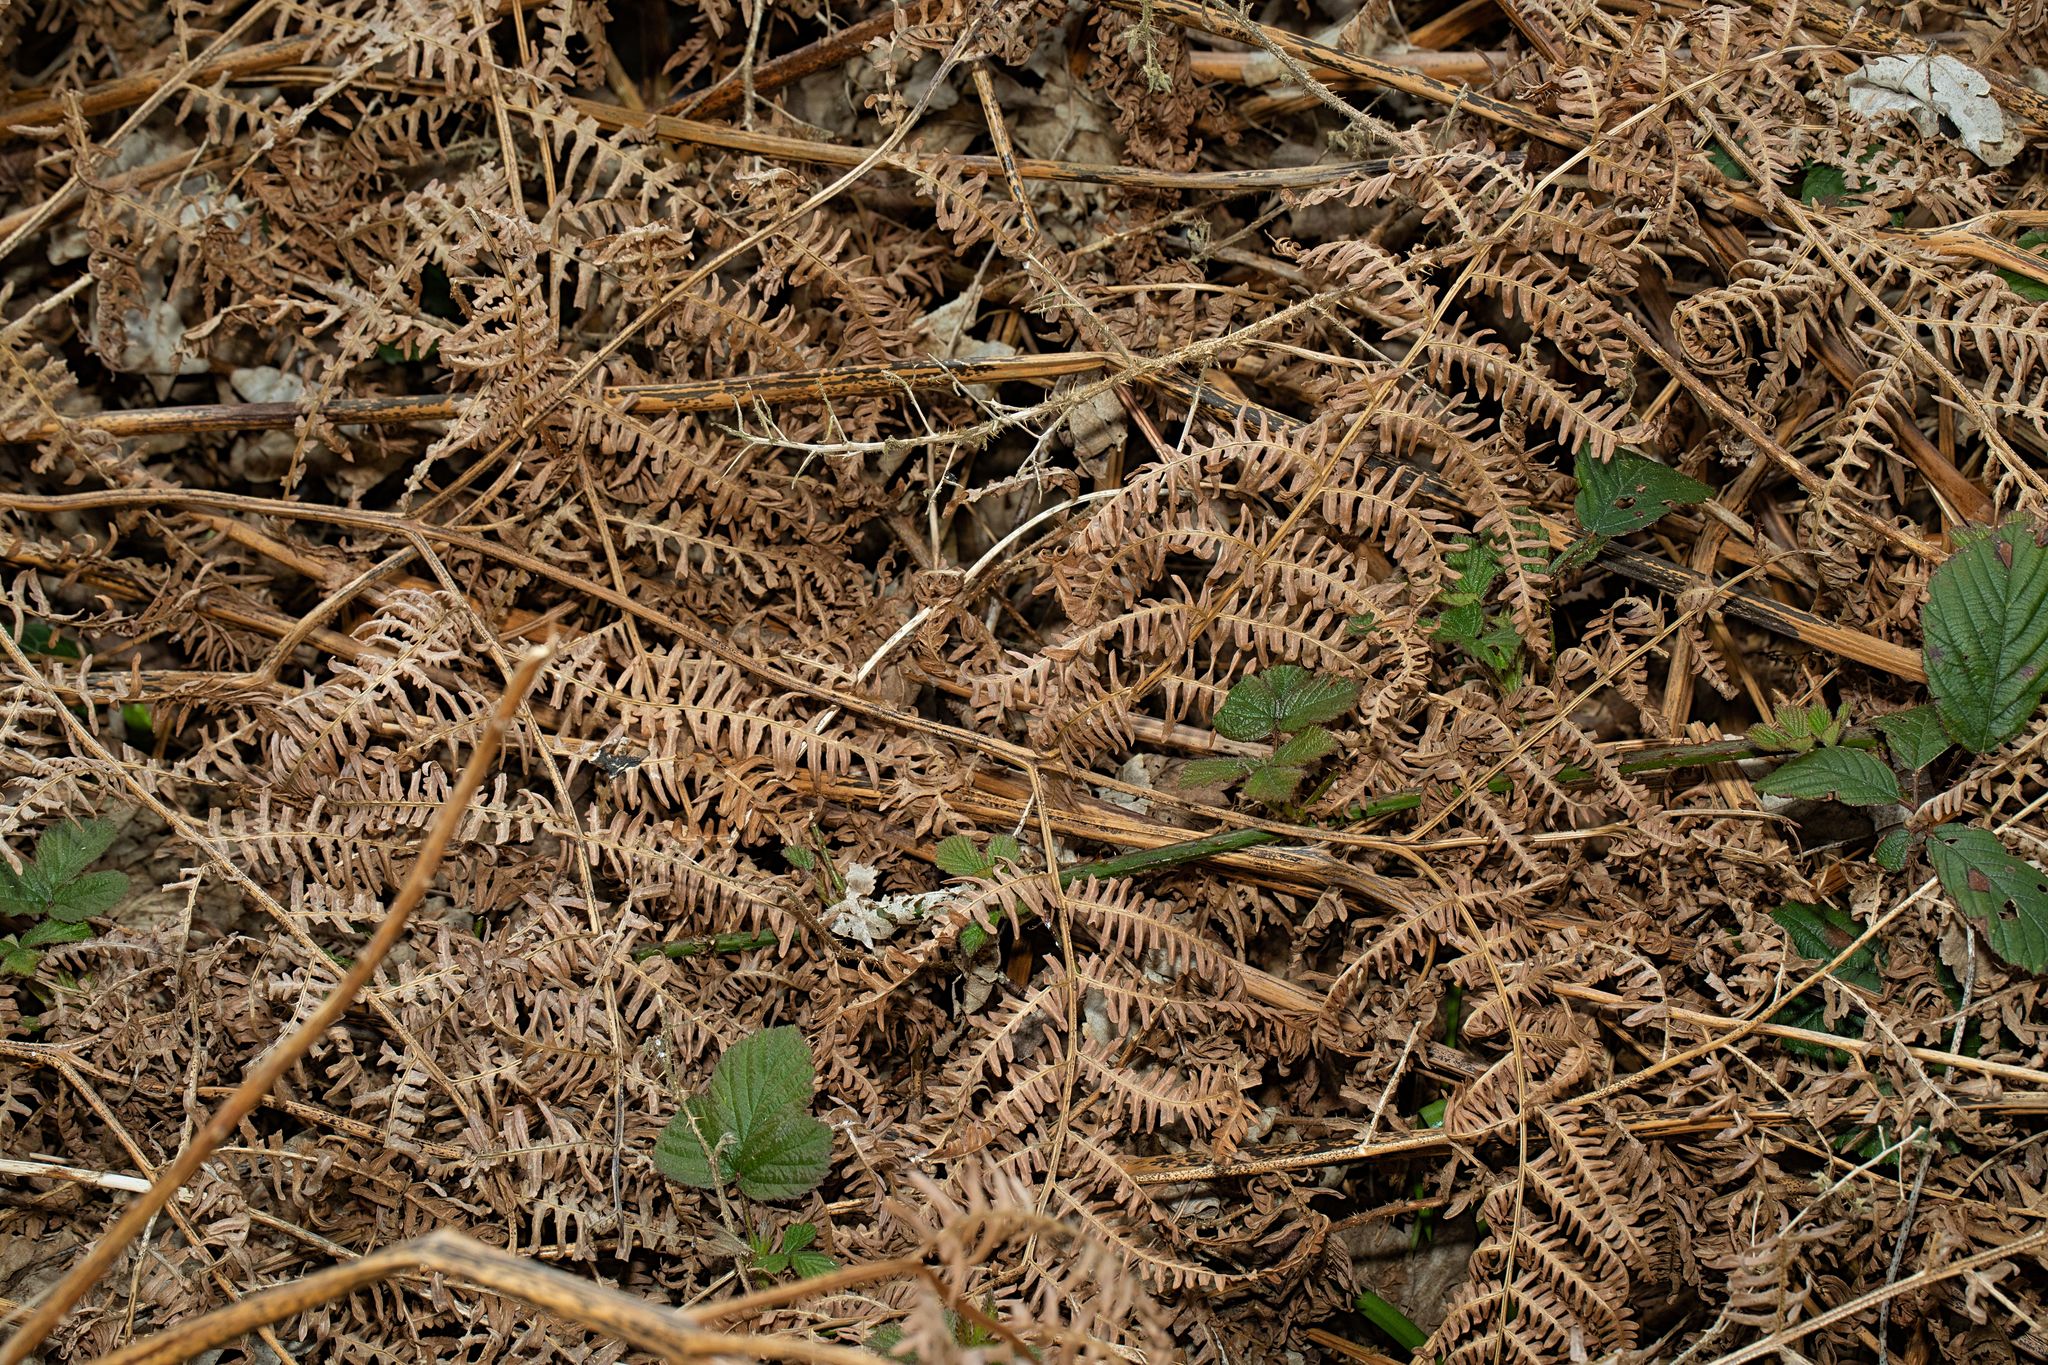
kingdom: Plantae
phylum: Tracheophyta
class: Polypodiopsida
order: Polypodiales
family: Dennstaedtiaceae
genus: Pteridium
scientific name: Pteridium aquilinum
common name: Bracken
